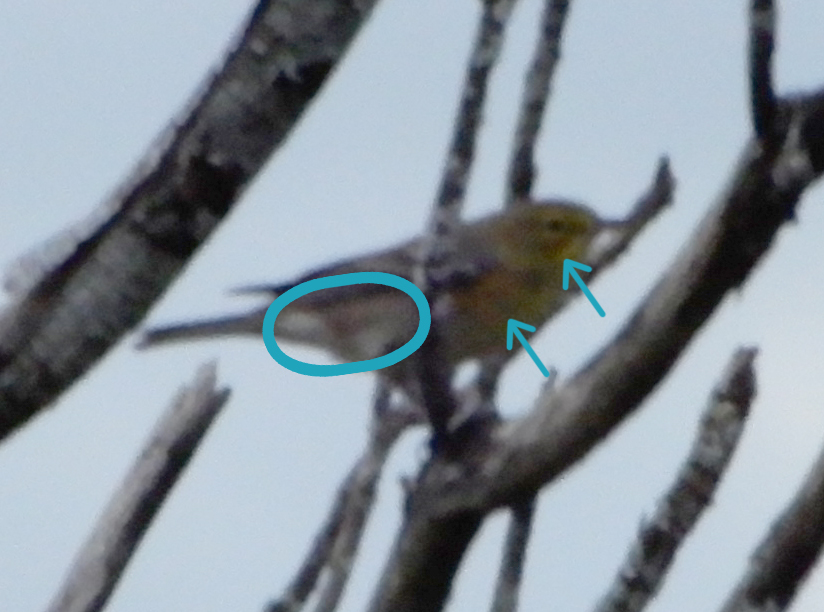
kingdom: Animalia
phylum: Chordata
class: Aves
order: Passeriformes
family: Parulidae
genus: Setophaga
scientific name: Setophaga castanea
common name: Bay-breasted warbler
